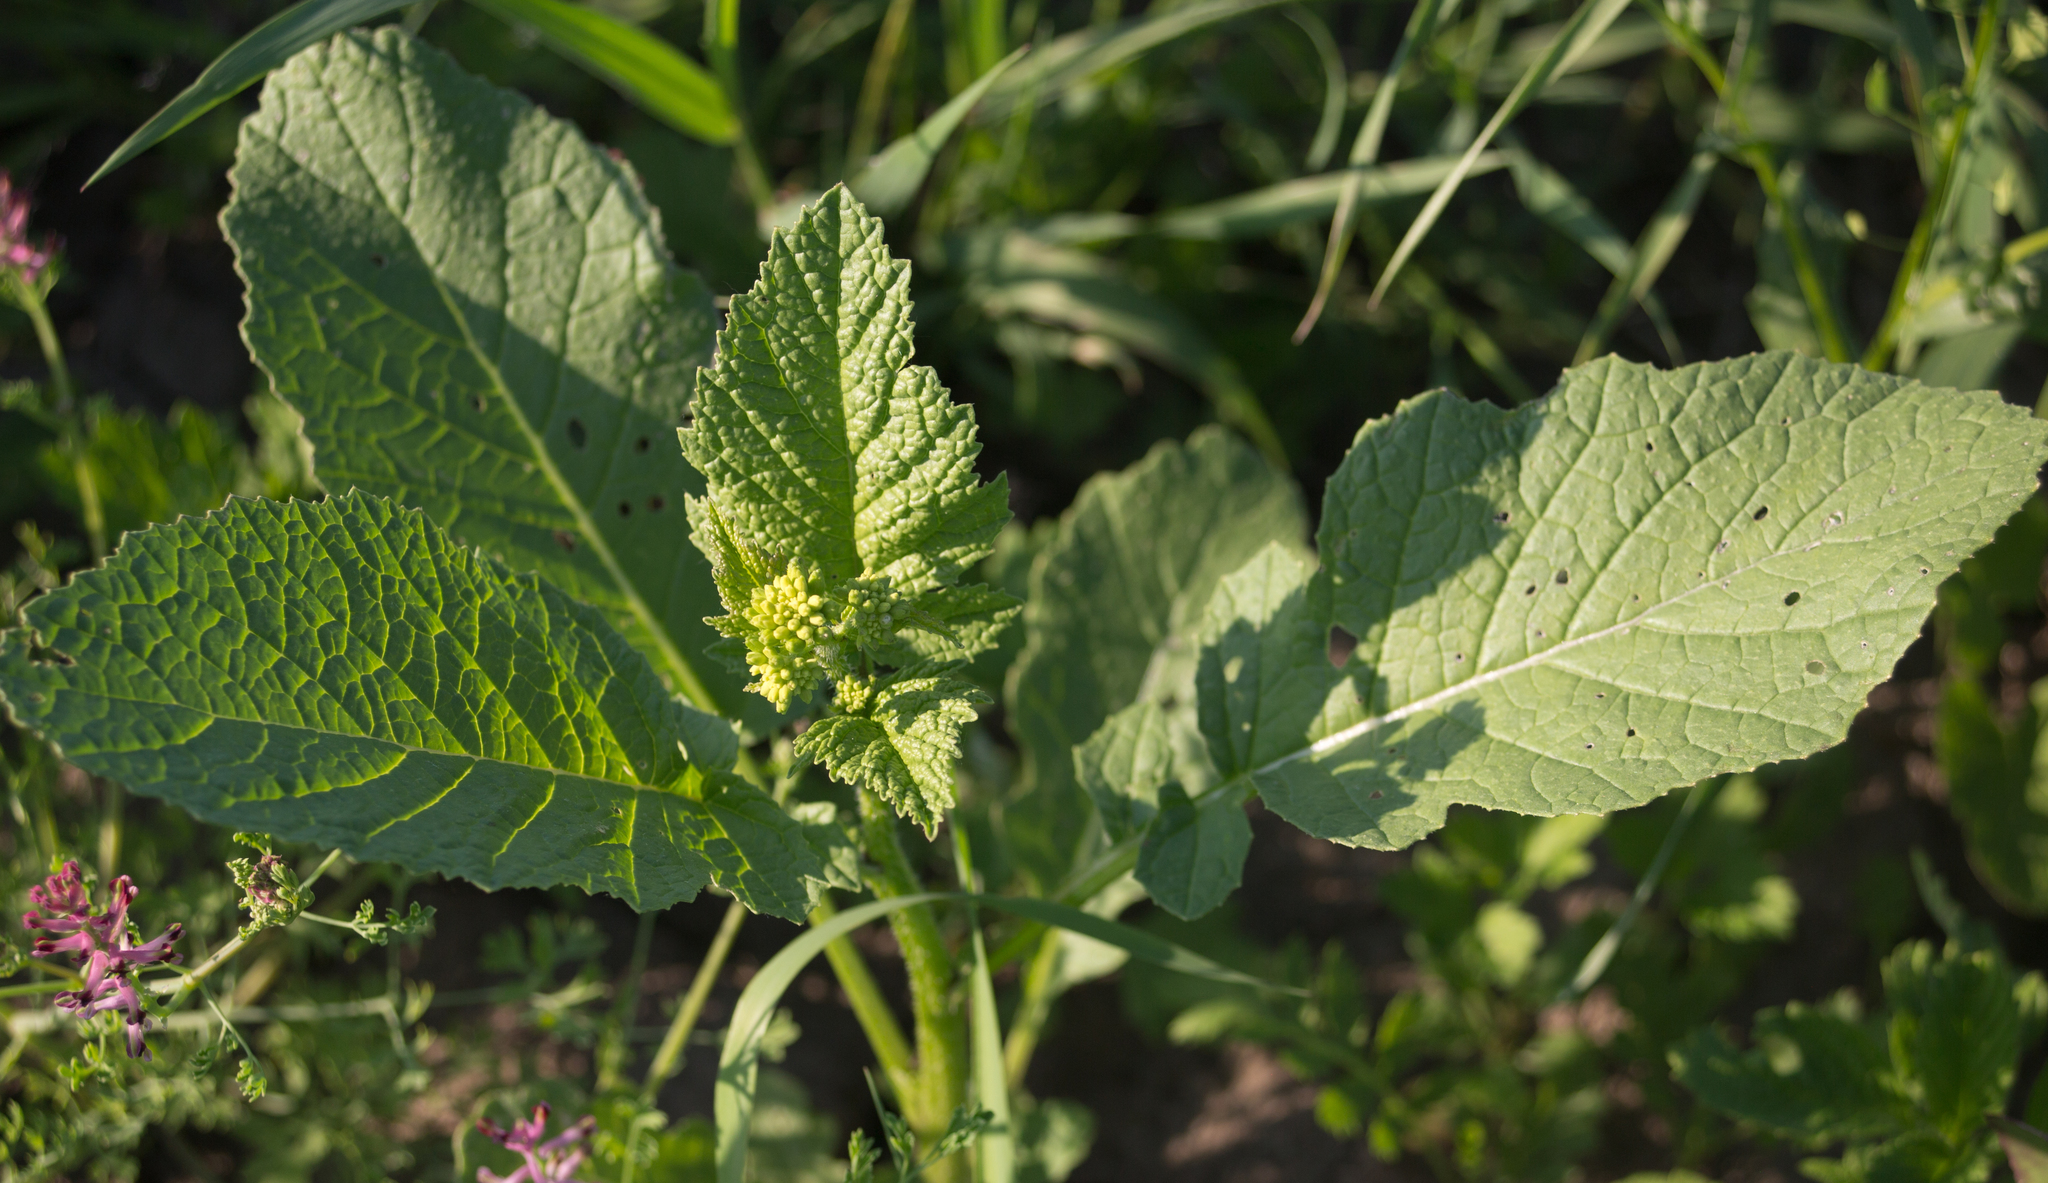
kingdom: Plantae
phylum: Tracheophyta
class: Magnoliopsida
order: Brassicales
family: Brassicaceae
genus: Sinapis
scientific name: Sinapis arvensis
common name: Charlock
